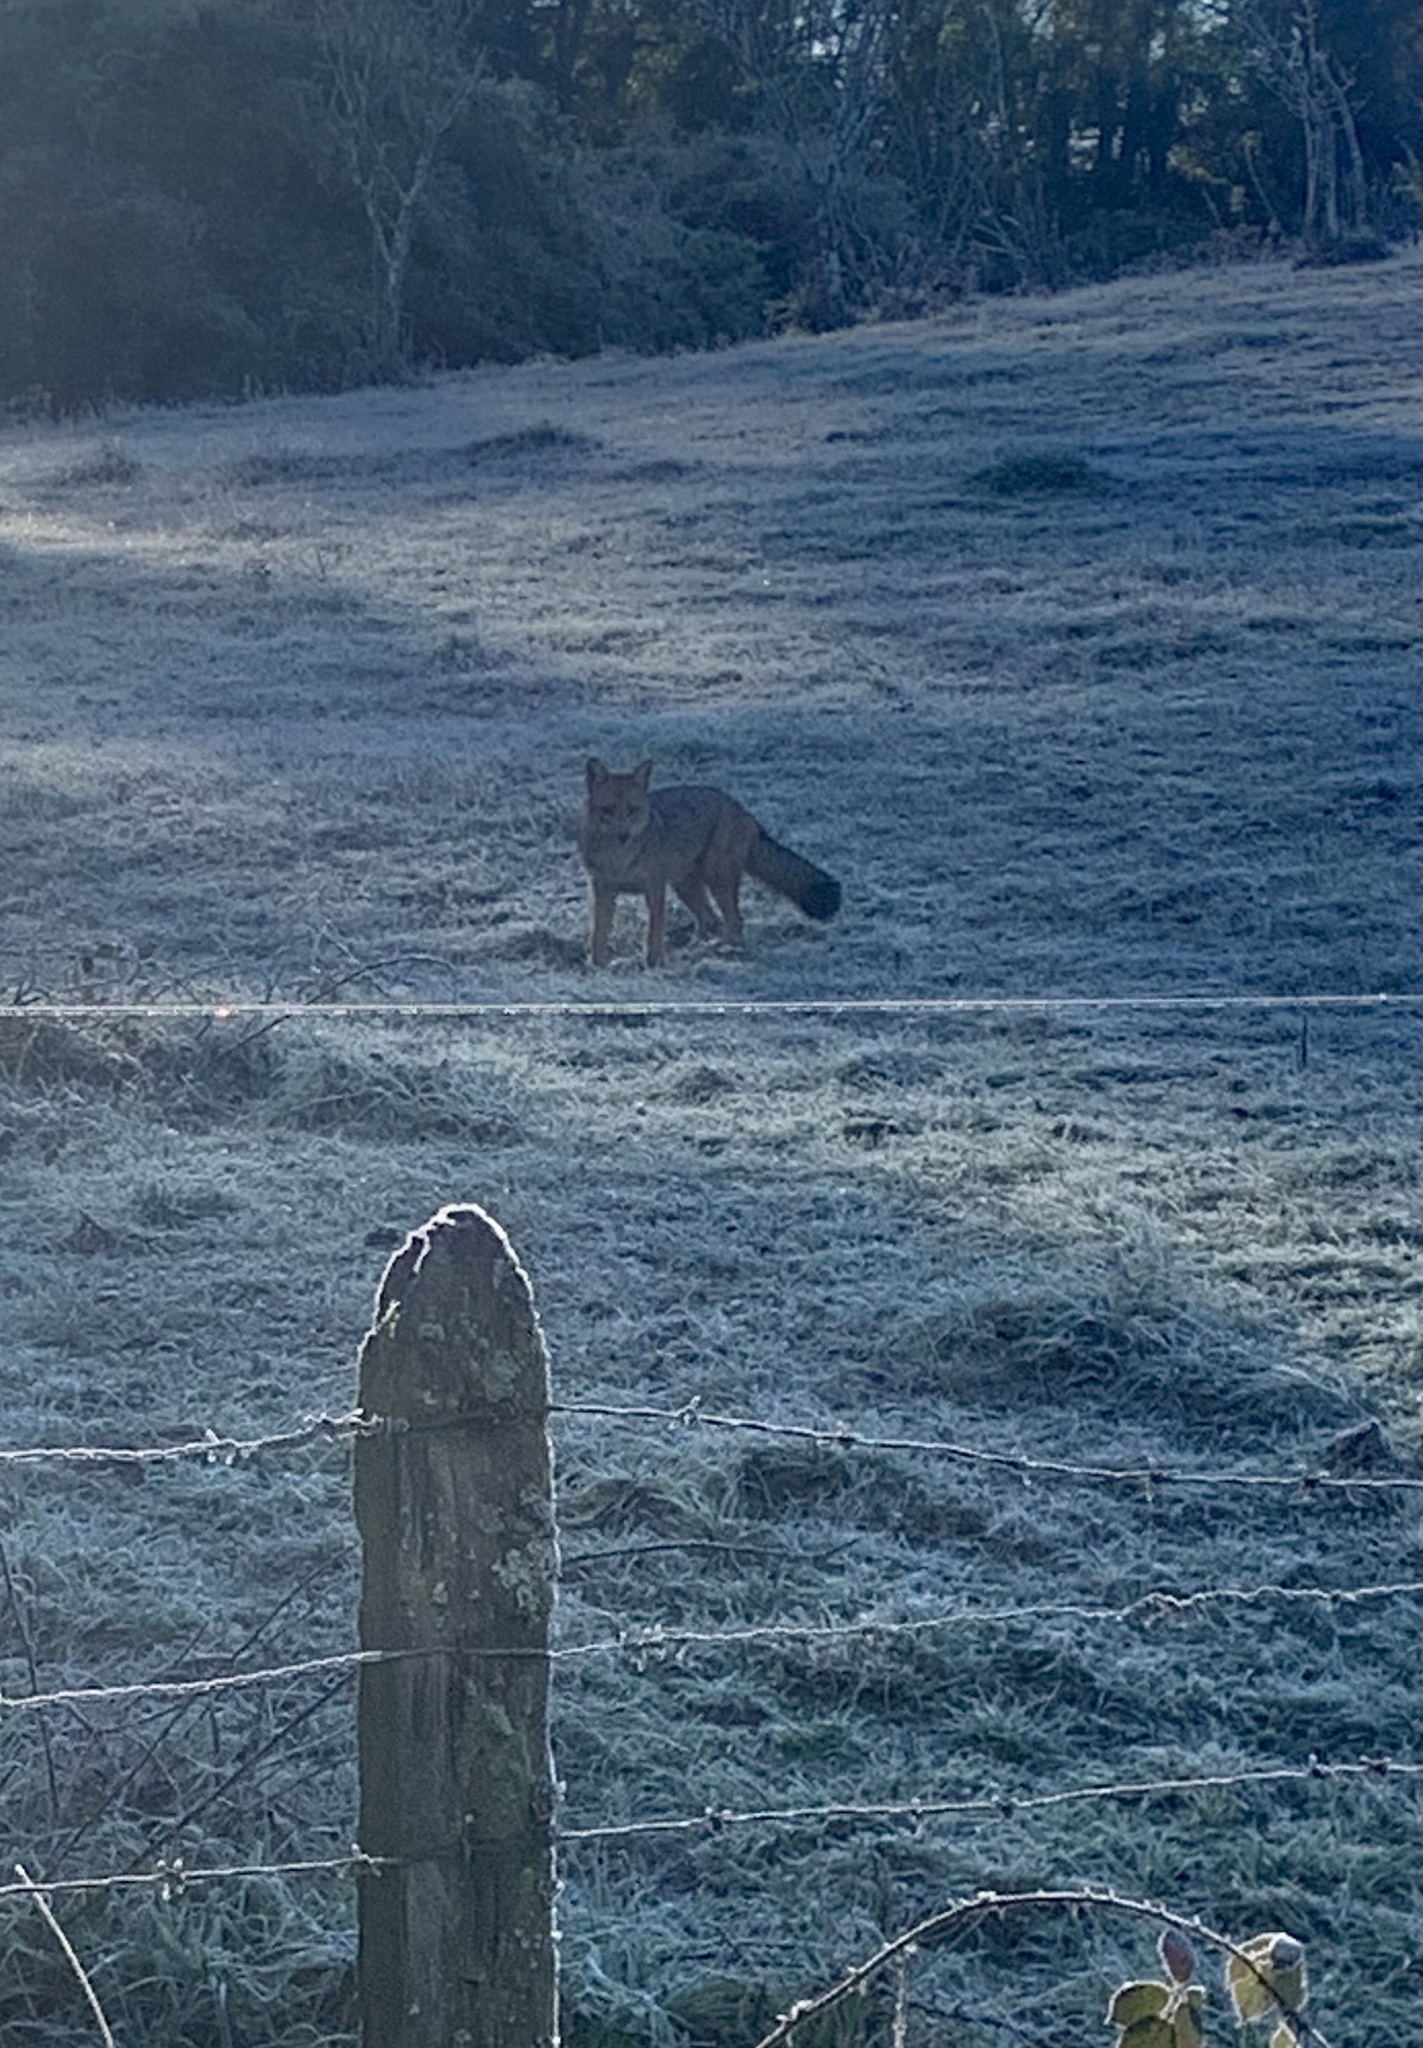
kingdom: Animalia
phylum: Chordata
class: Mammalia
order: Carnivora
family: Canidae
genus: Lycalopex
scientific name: Lycalopex culpaeus
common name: Culpeo
